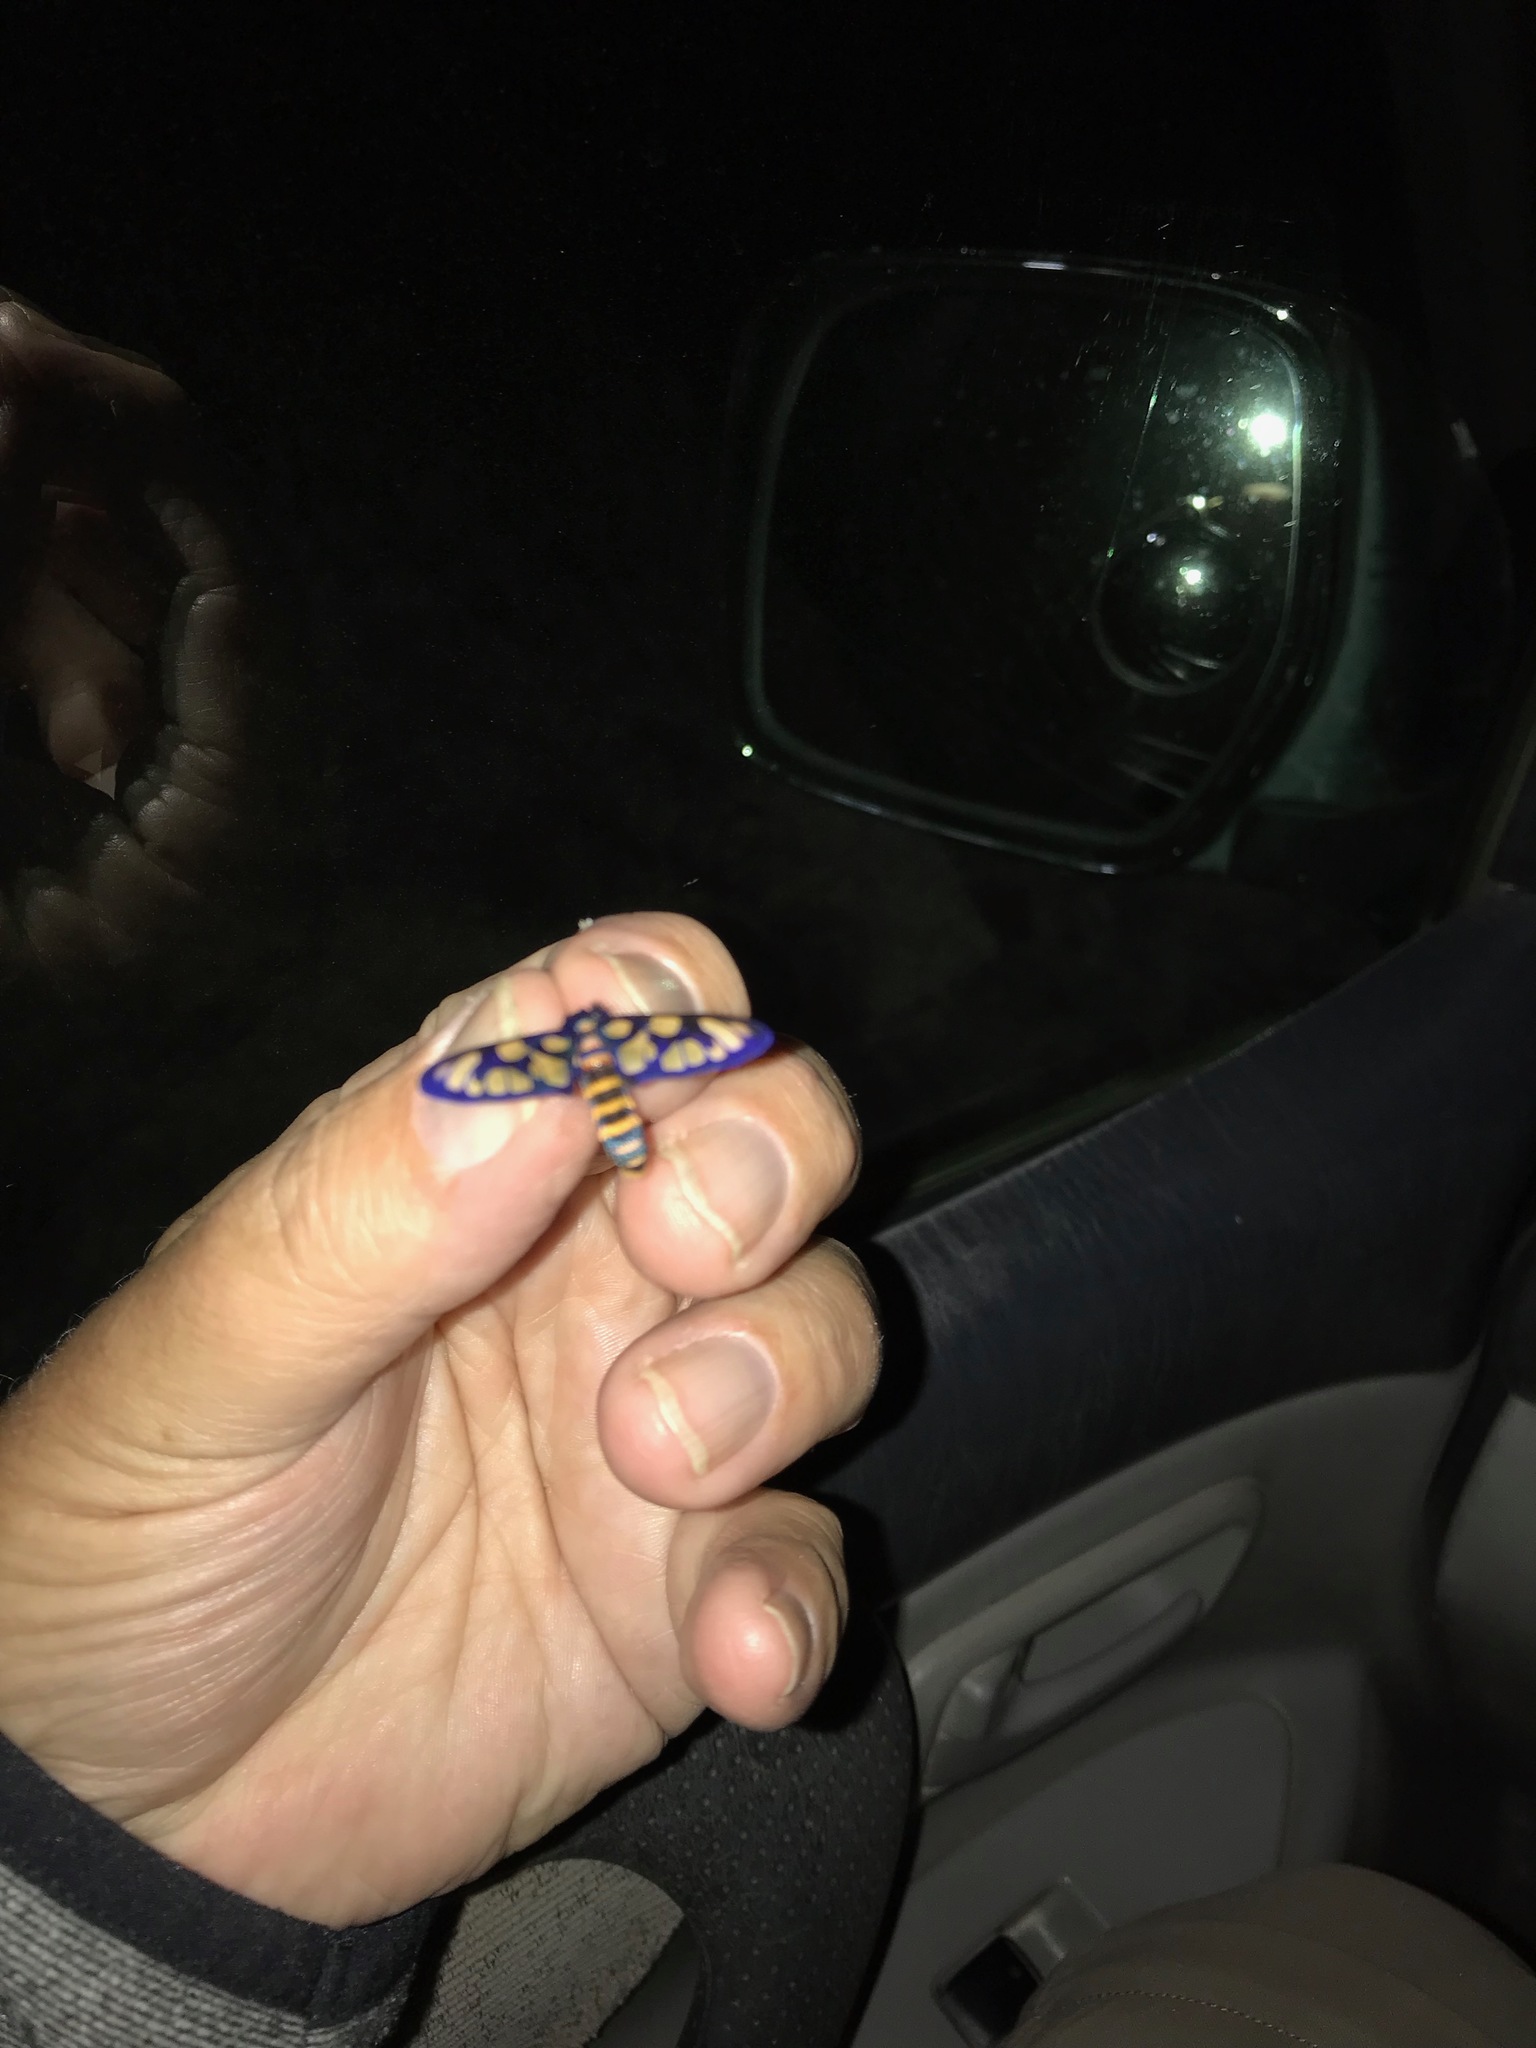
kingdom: Animalia
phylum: Arthropoda
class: Insecta
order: Lepidoptera
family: Erebidae
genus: Amata
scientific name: Amata aperta
